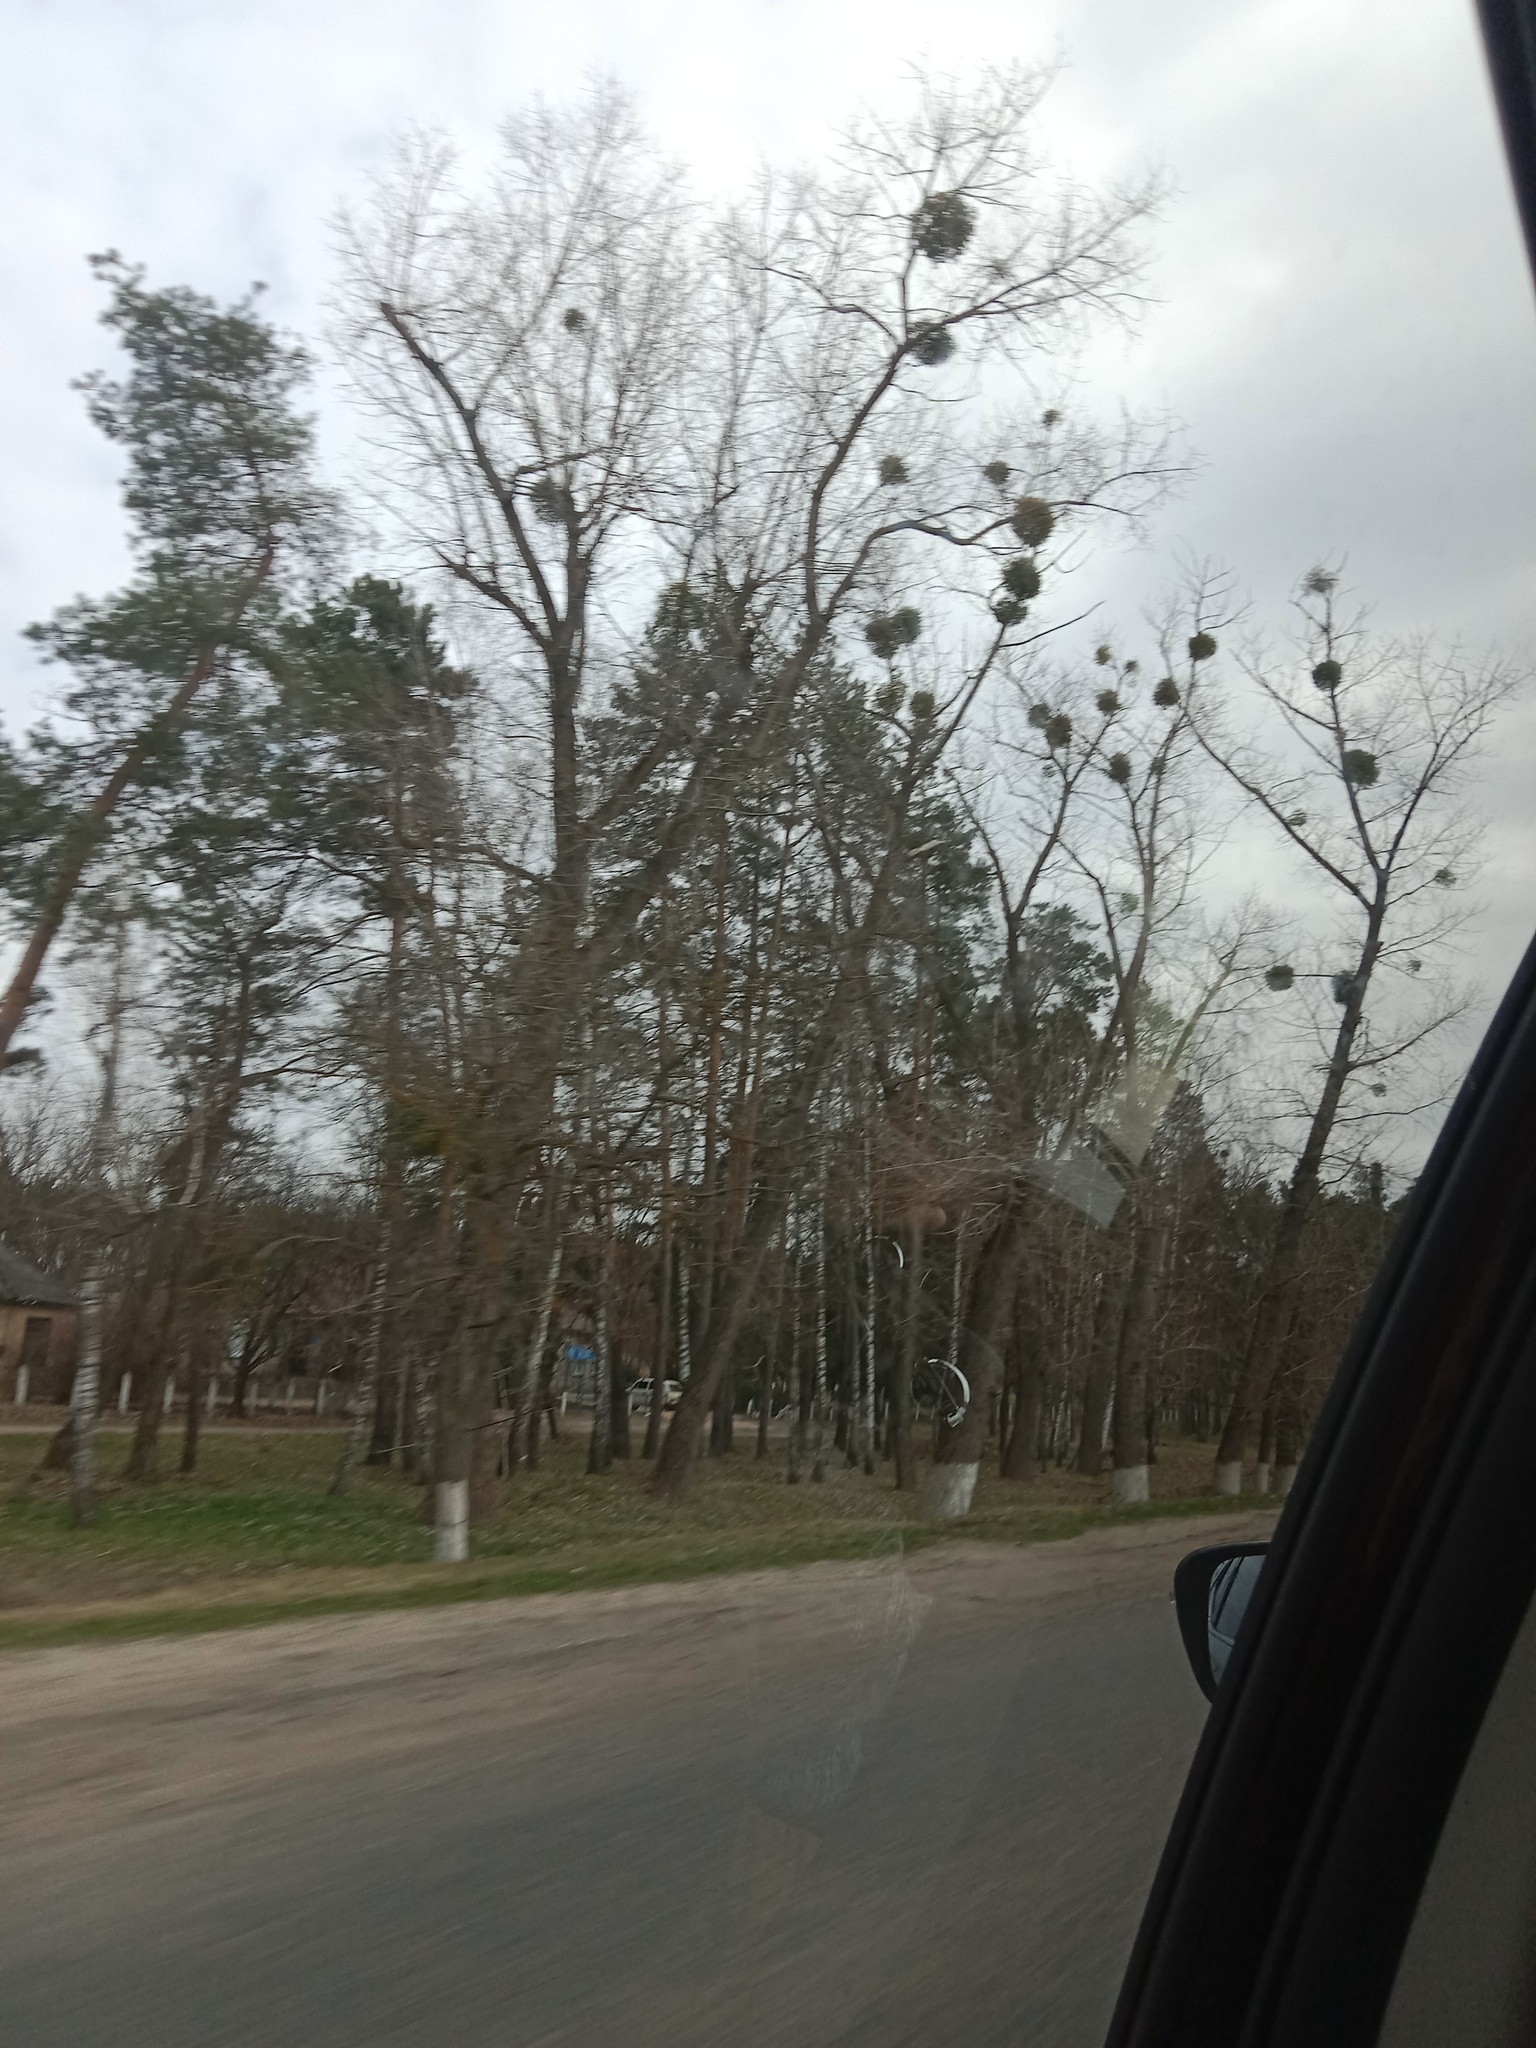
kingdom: Plantae
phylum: Tracheophyta
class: Magnoliopsida
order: Santalales
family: Viscaceae
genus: Viscum
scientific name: Viscum album
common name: Mistletoe
